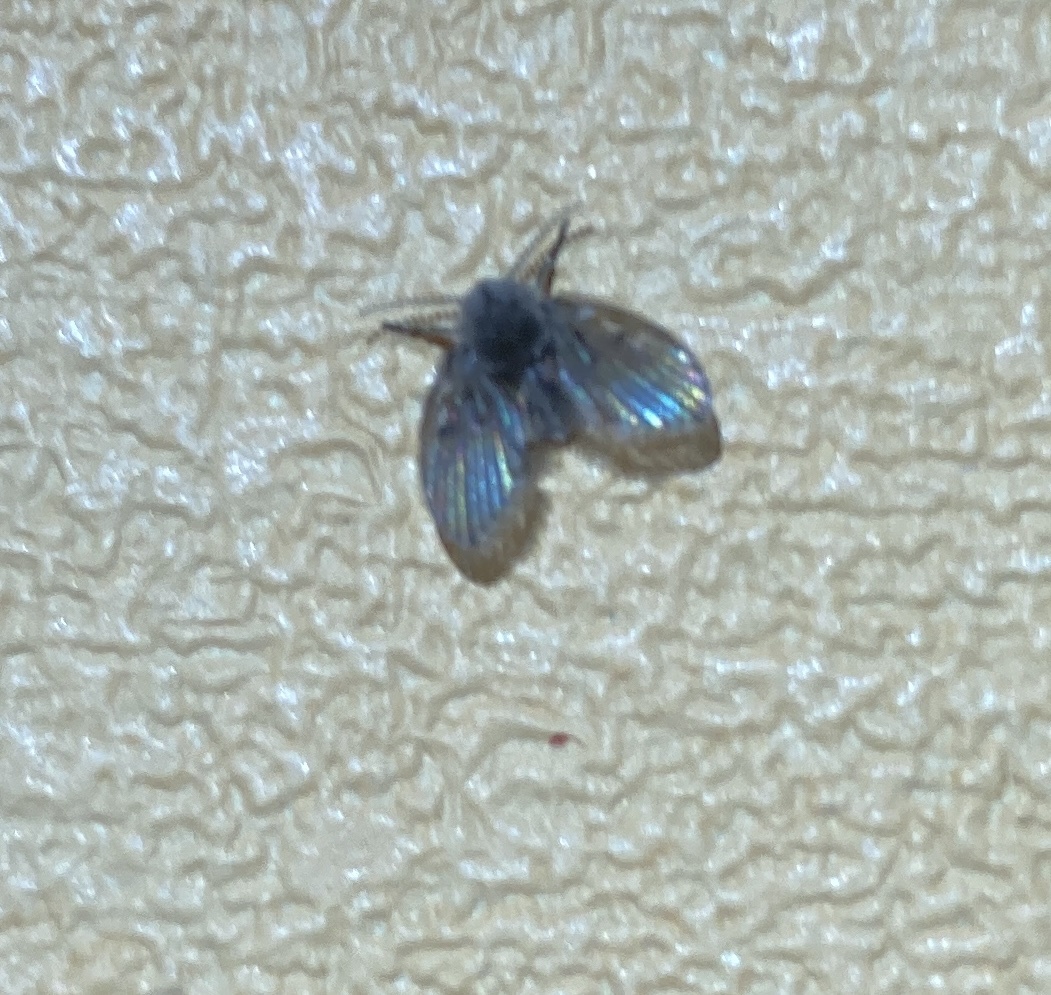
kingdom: Animalia
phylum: Arthropoda
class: Insecta
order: Diptera
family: Psychodidae
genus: Clogmia
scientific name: Clogmia albipunctatus
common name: White-spotted moth fly
